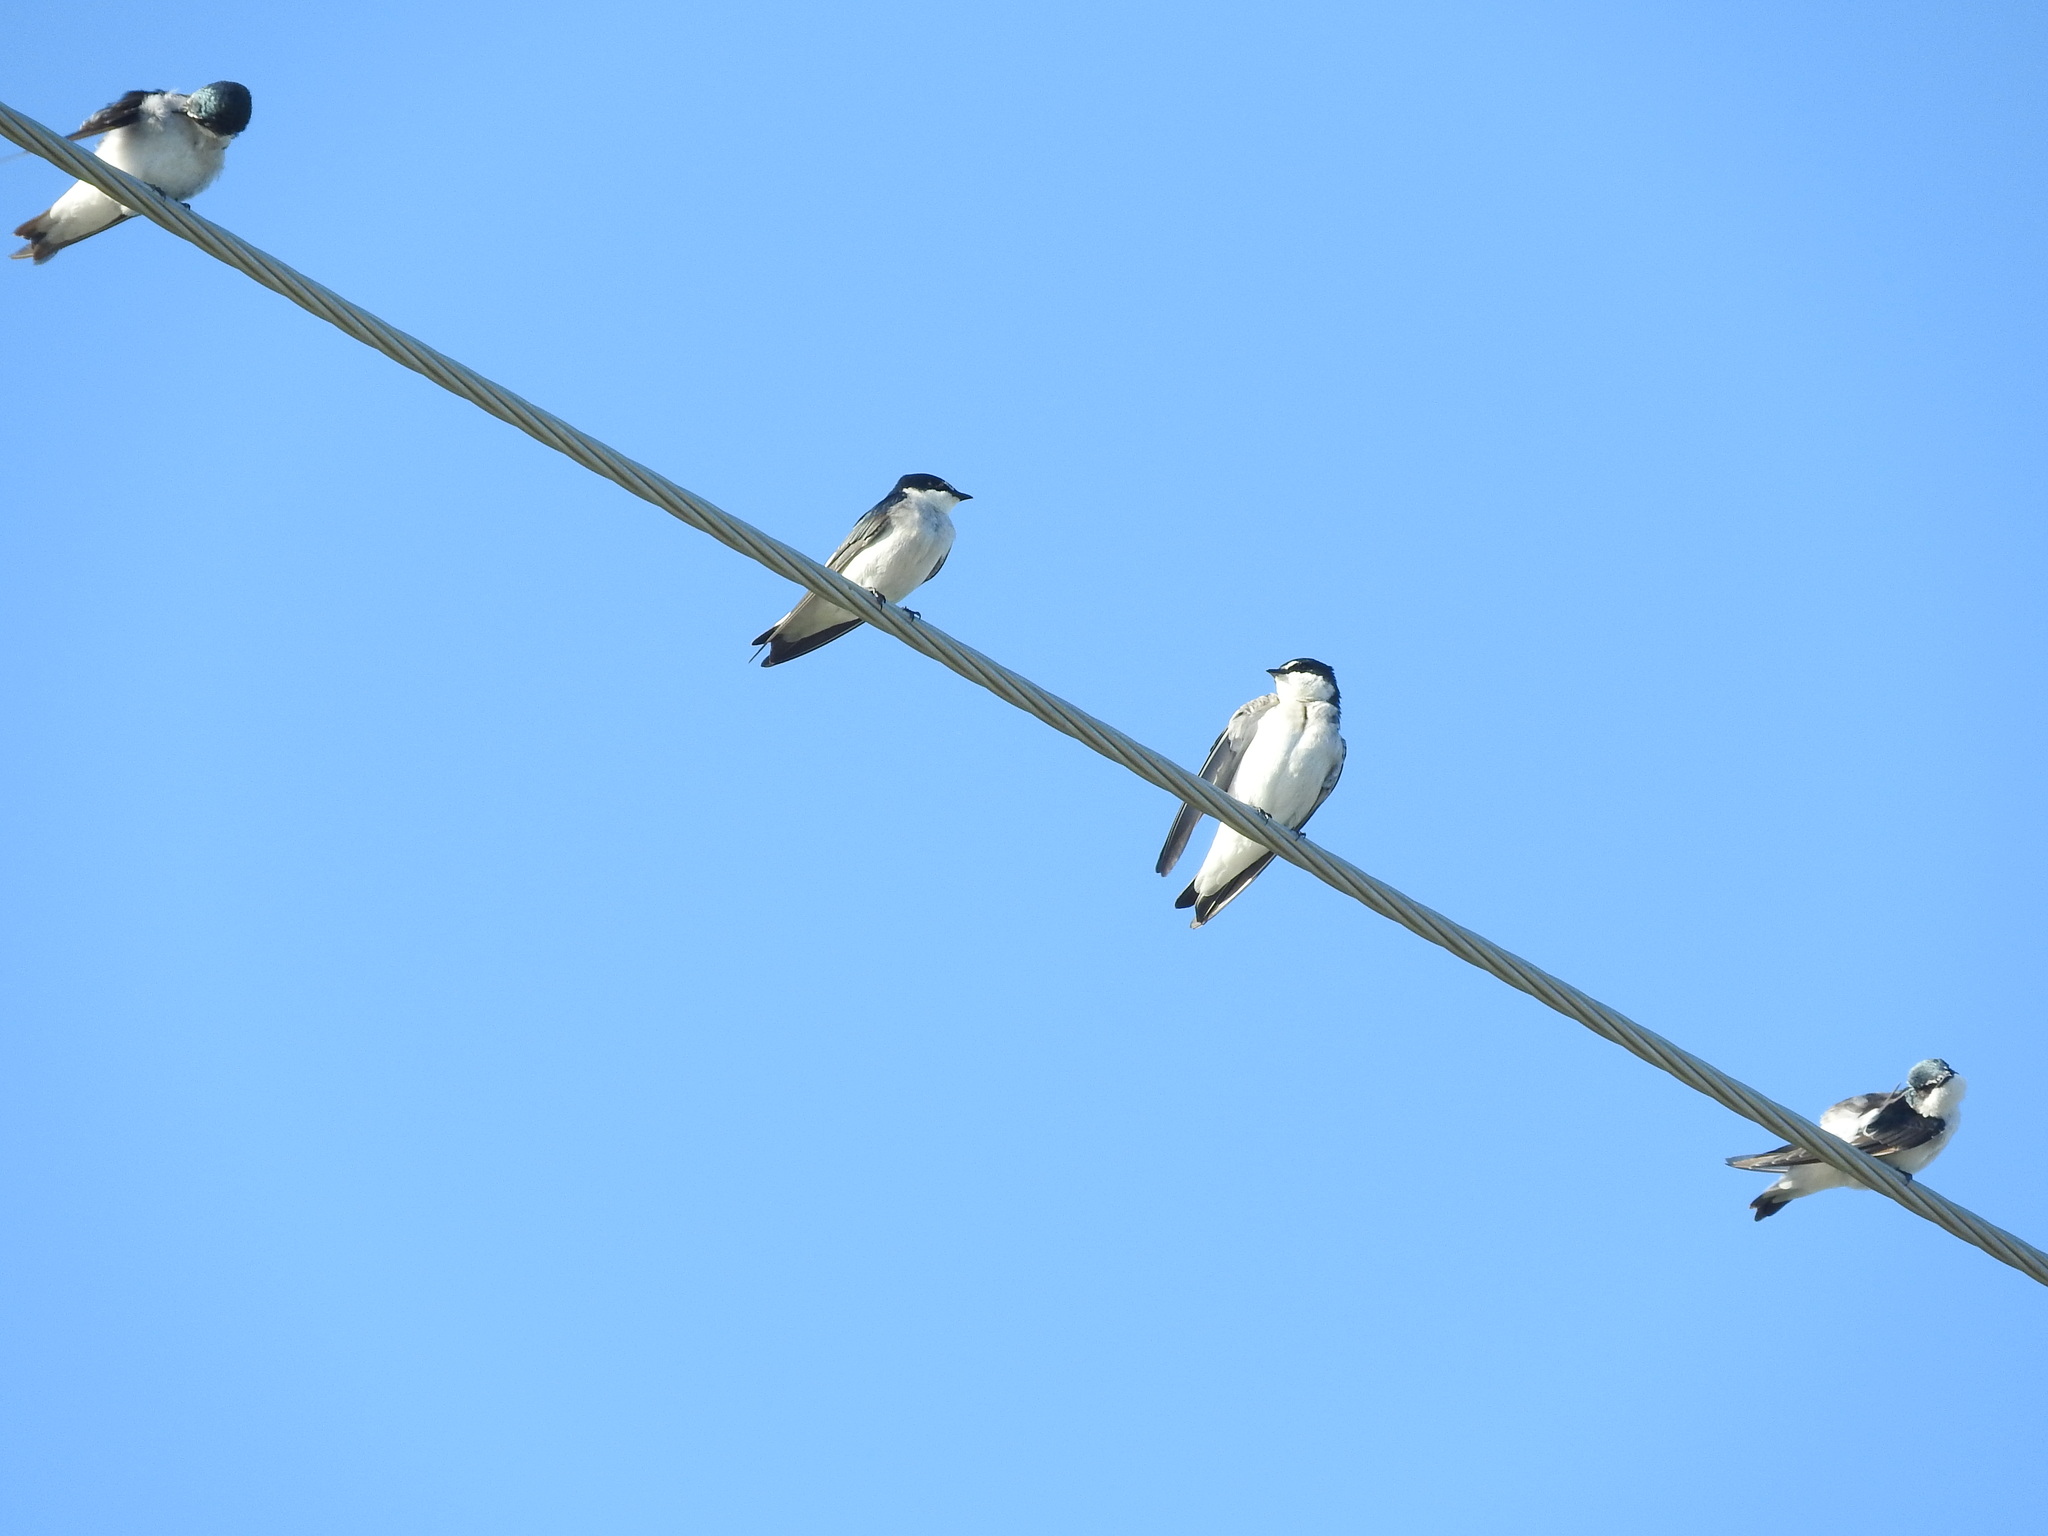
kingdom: Animalia
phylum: Chordata
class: Aves
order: Passeriformes
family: Hirundinidae
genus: Tachycineta
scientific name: Tachycineta albilinea
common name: Mangrove swallow
